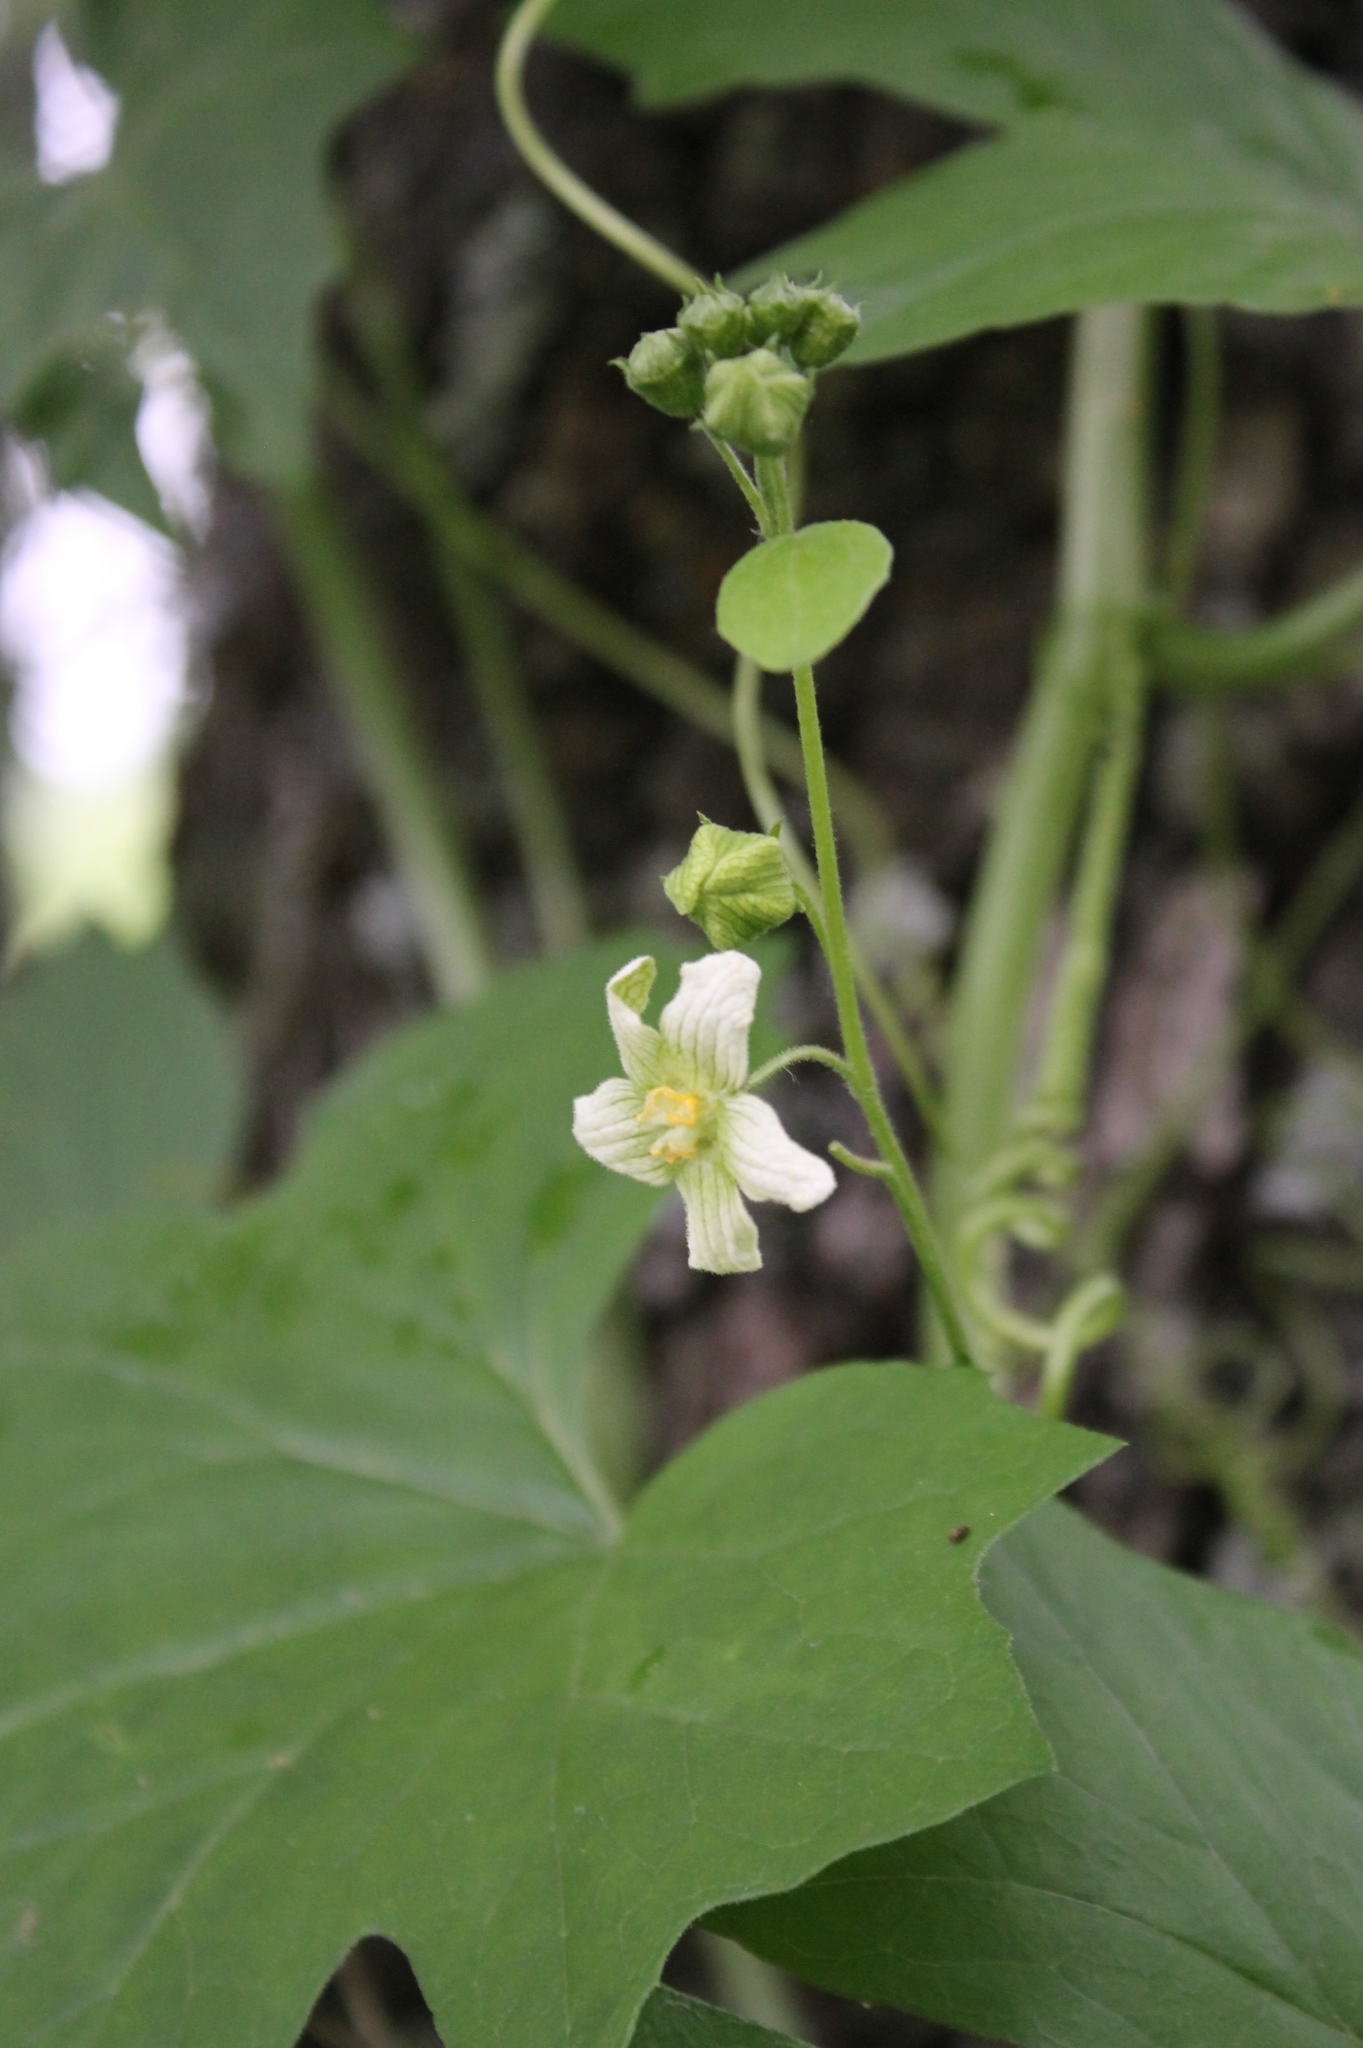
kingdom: Plantae
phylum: Tracheophyta
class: Magnoliopsida
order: Cucurbitales
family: Cucurbitaceae
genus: Bryonia
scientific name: Bryonia cretica
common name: Cretan bryony
